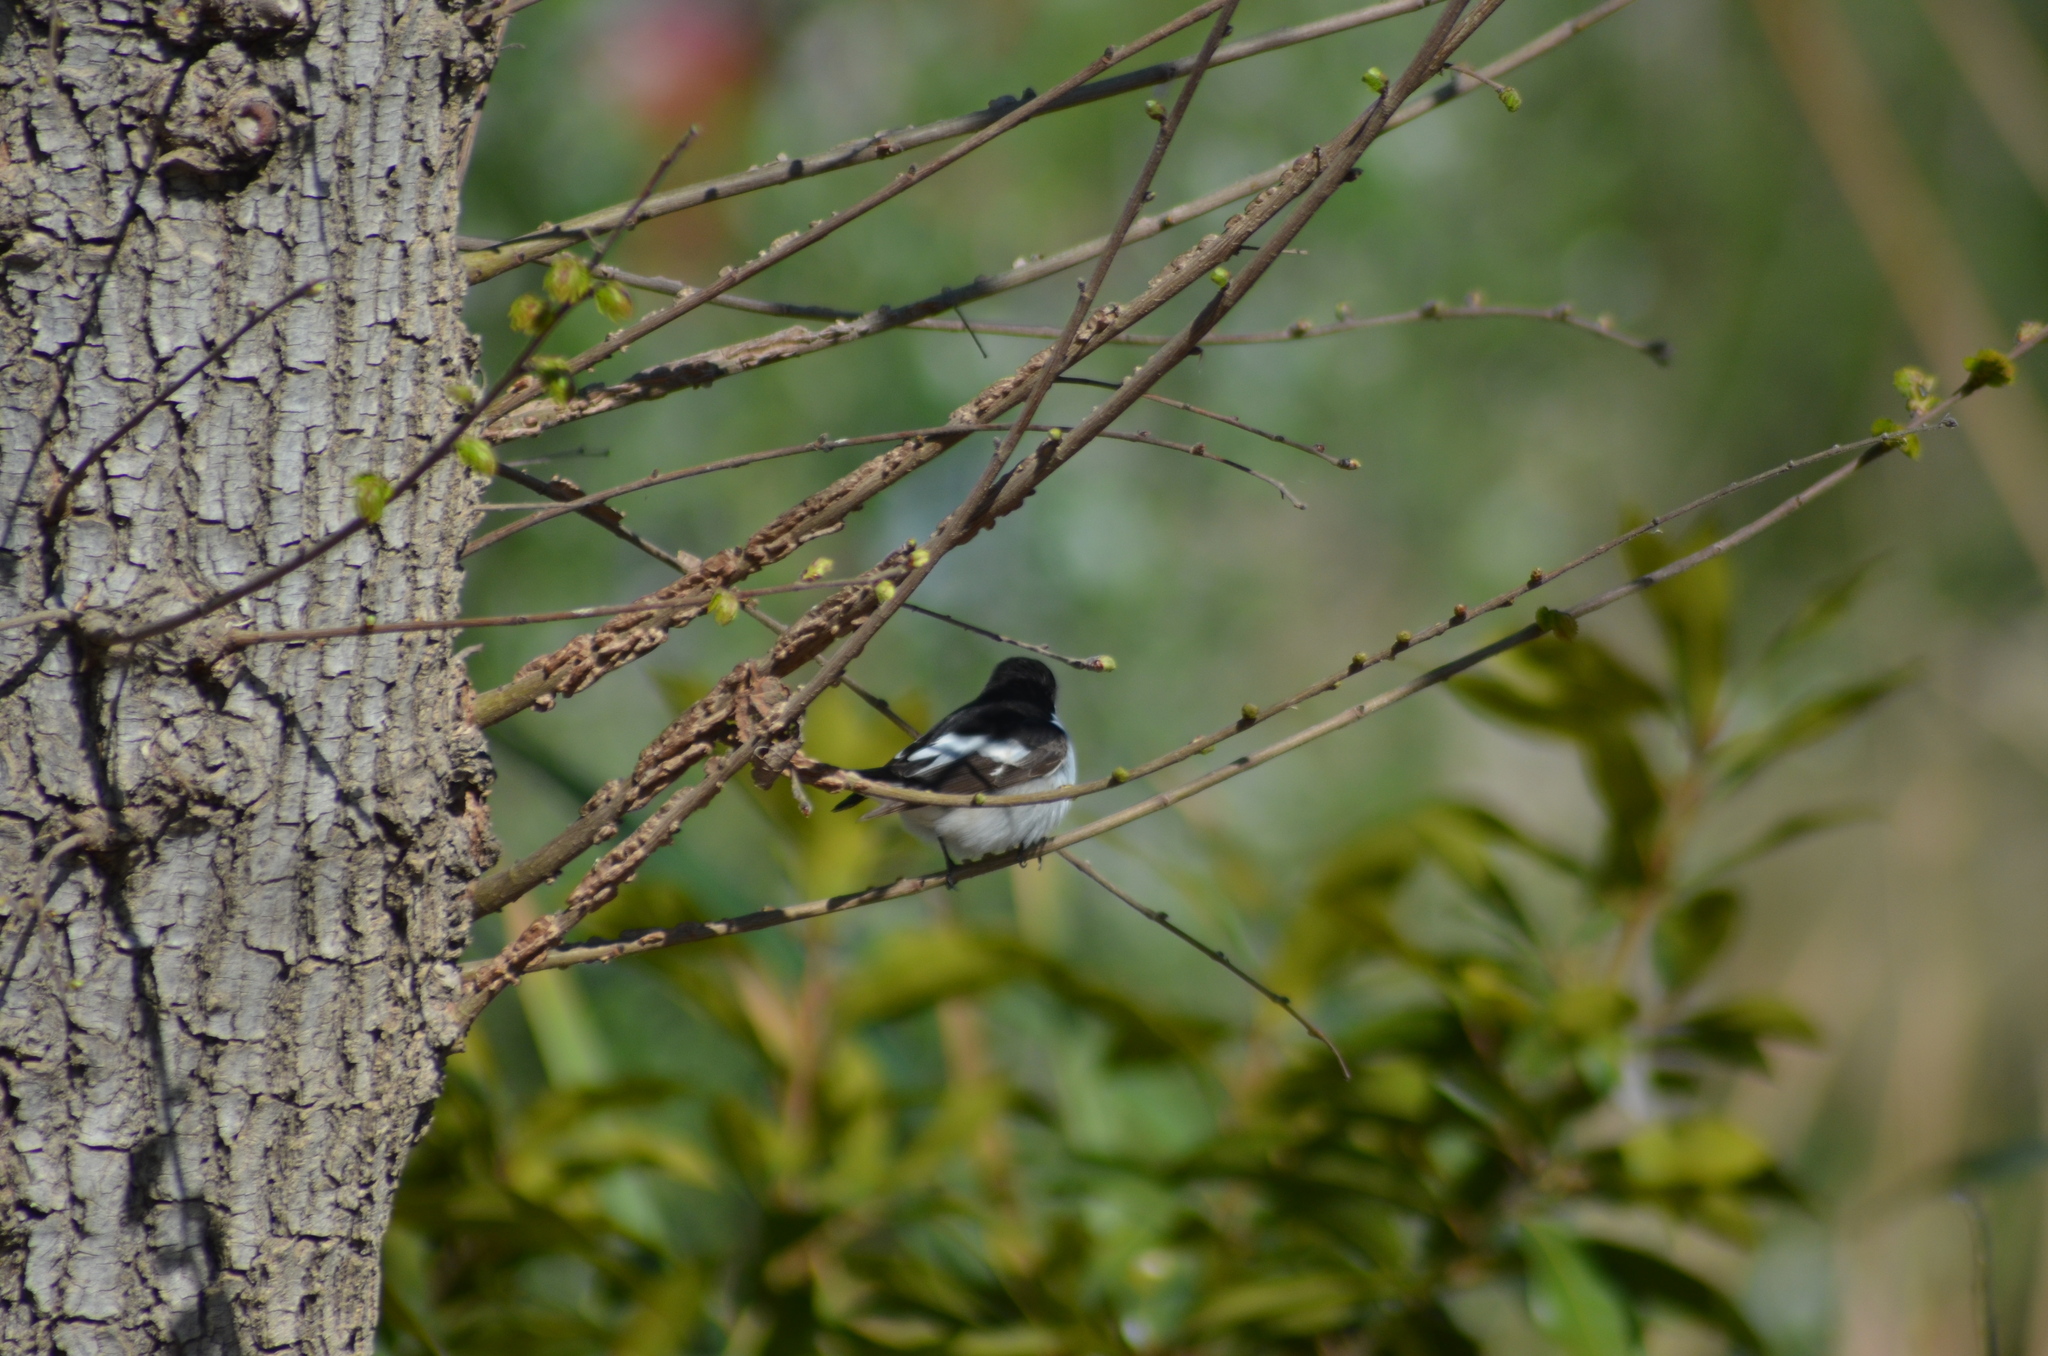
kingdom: Animalia
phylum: Chordata
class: Aves
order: Passeriformes
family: Muscicapidae
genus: Ficedula
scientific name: Ficedula hypoleuca
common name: European pied flycatcher
